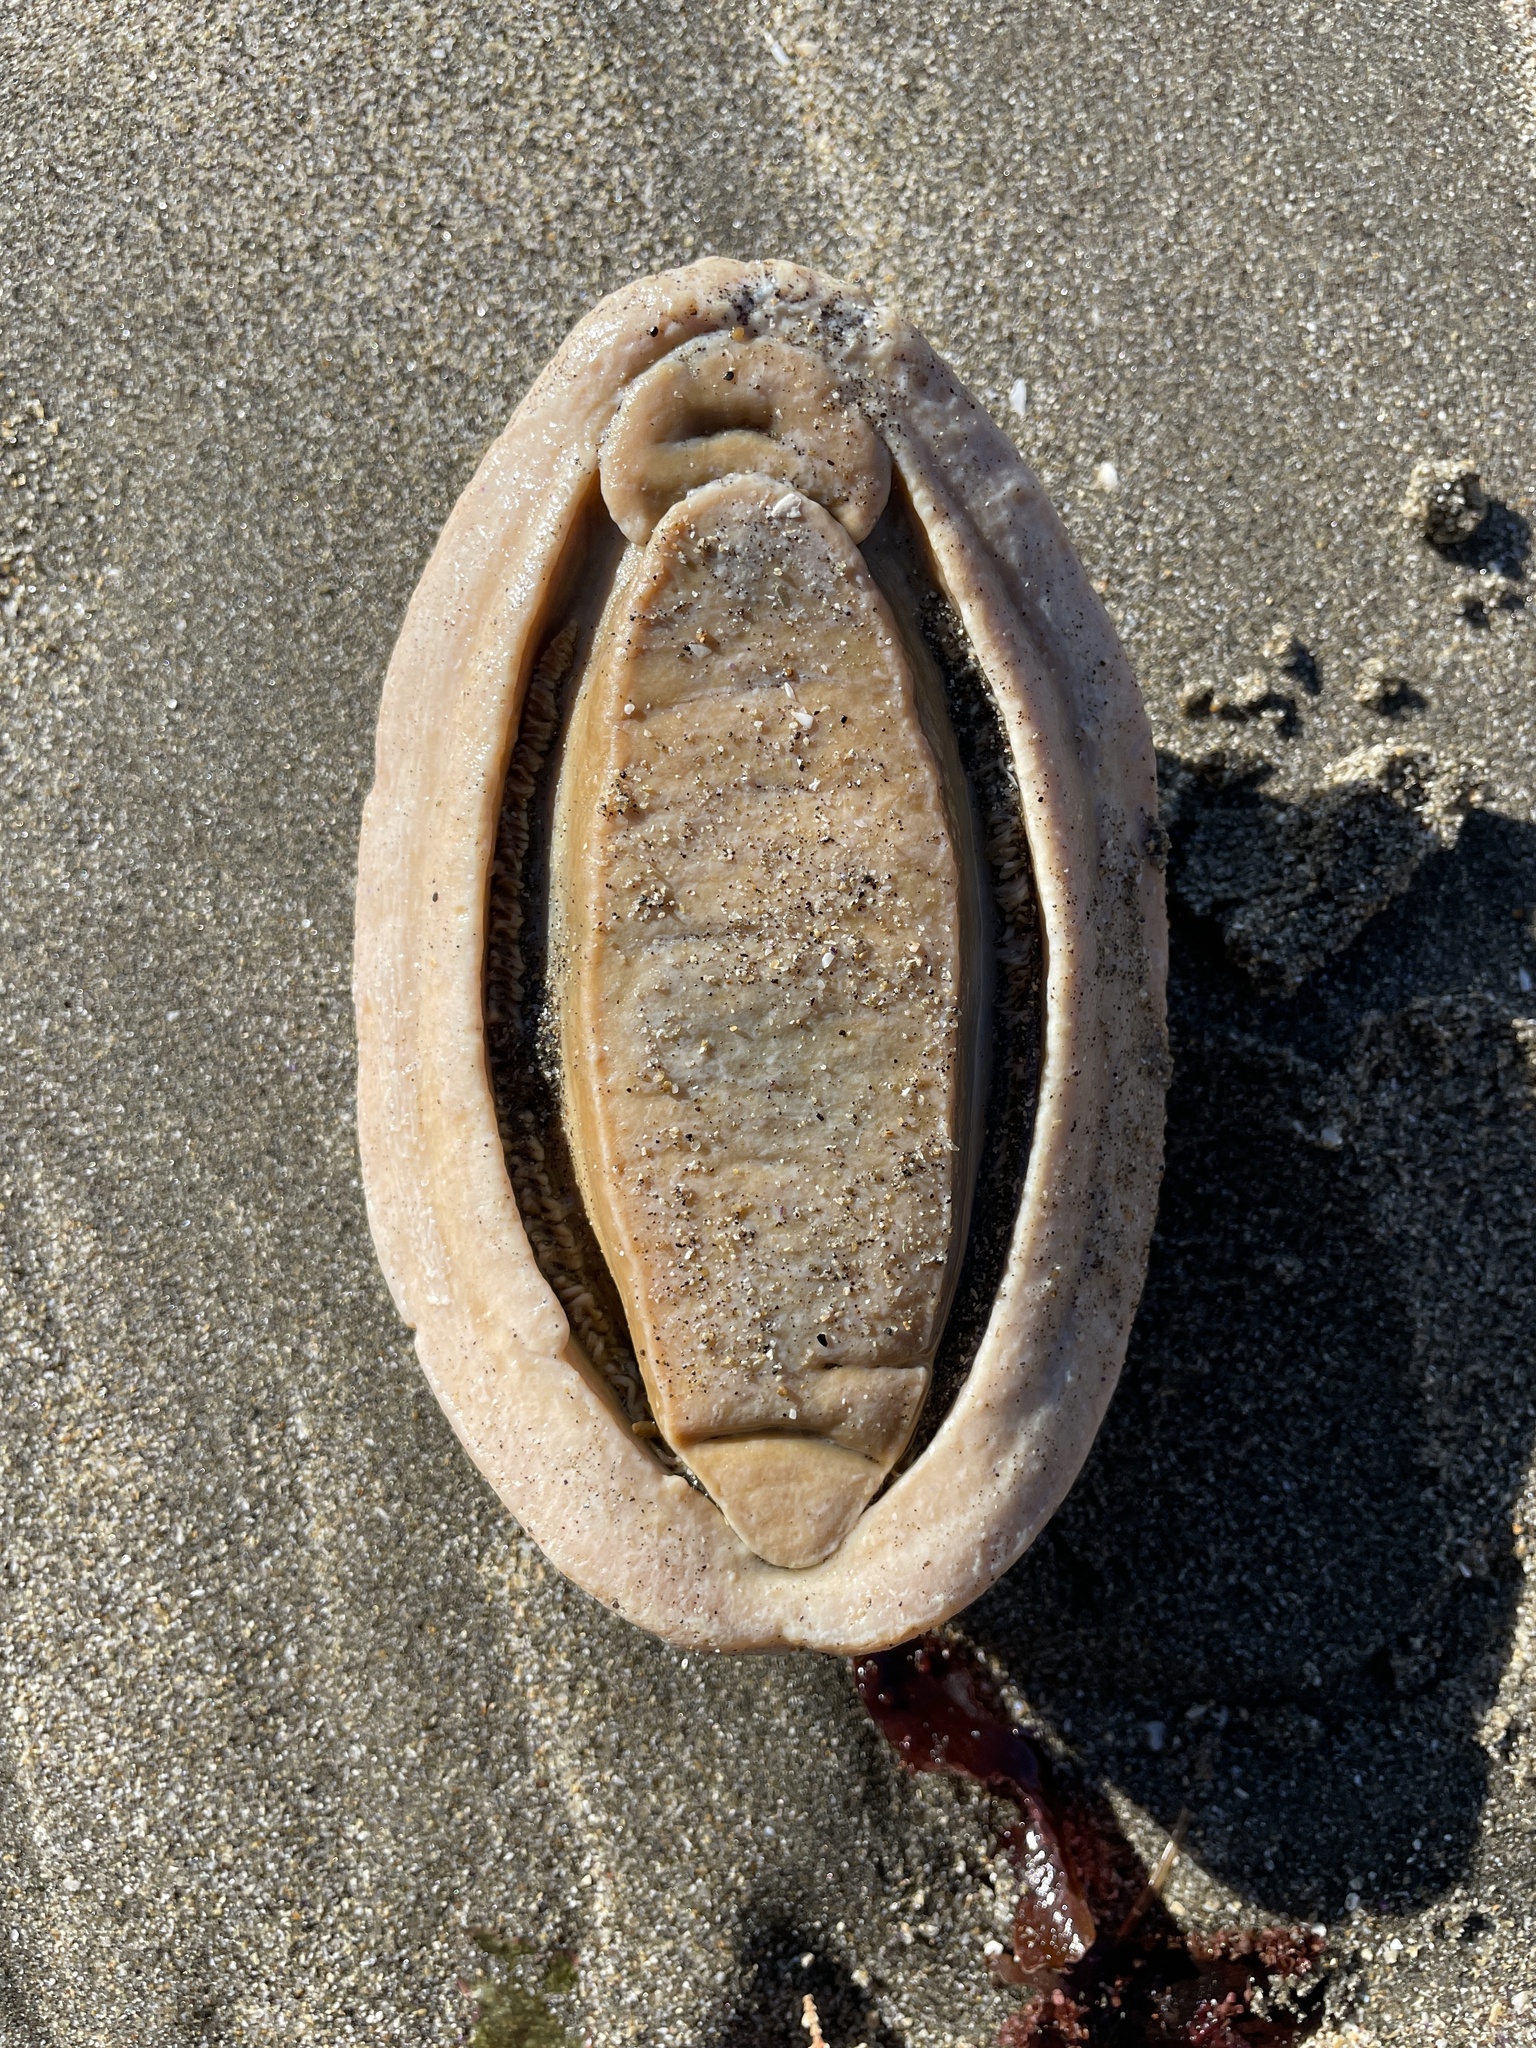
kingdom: Animalia
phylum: Mollusca
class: Polyplacophora
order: Chitonida
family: Acanthochitonidae
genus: Cryptochiton
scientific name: Cryptochiton stelleri
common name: Giant pacific chiton
